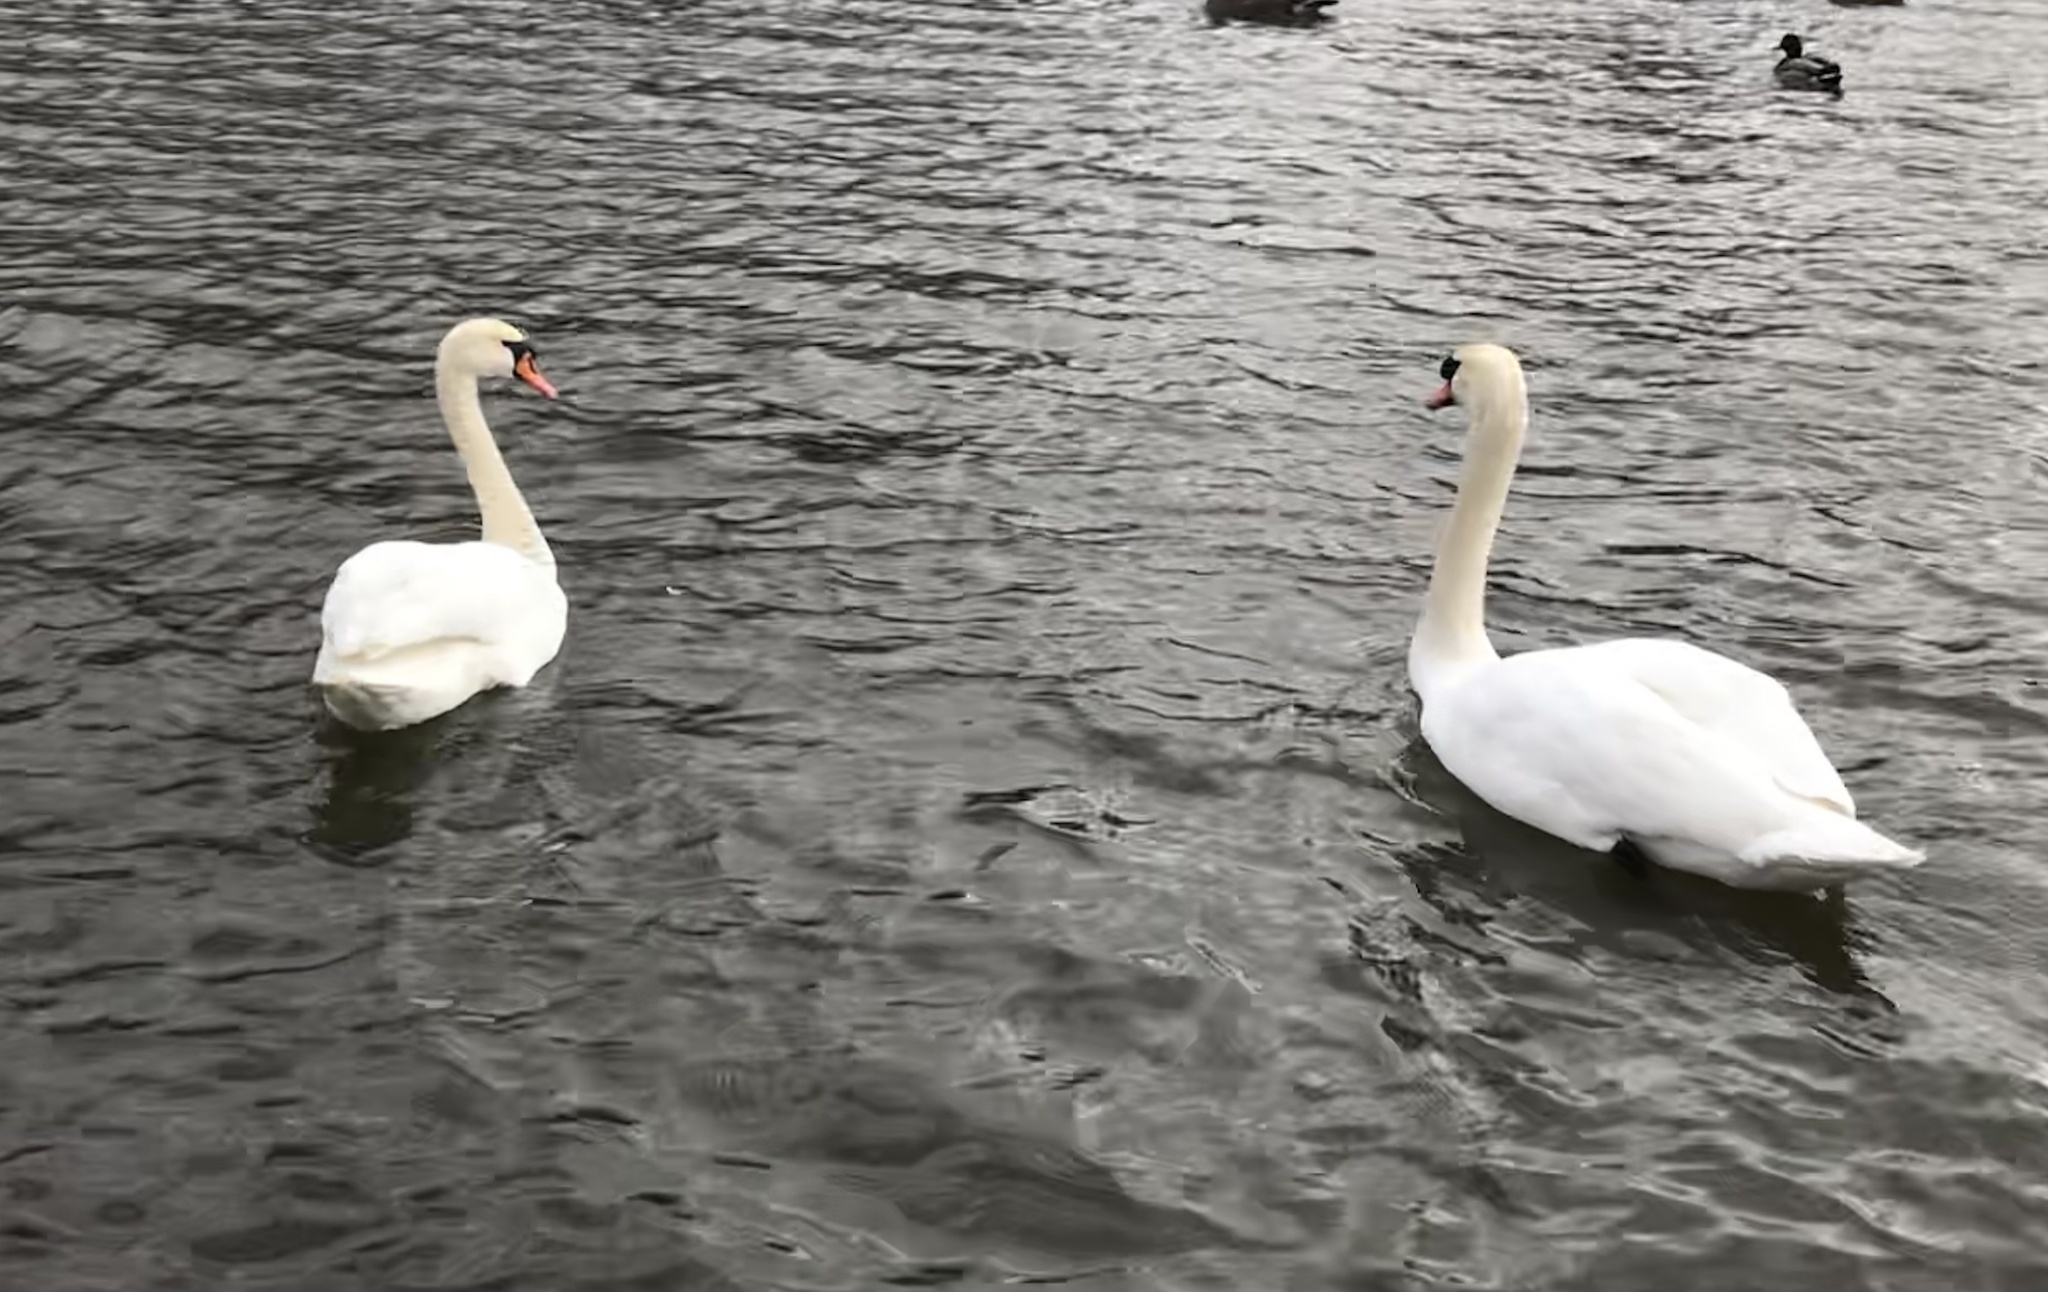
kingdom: Animalia
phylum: Chordata
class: Aves
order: Anseriformes
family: Anatidae
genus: Cygnus
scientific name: Cygnus olor
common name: Mute swan
